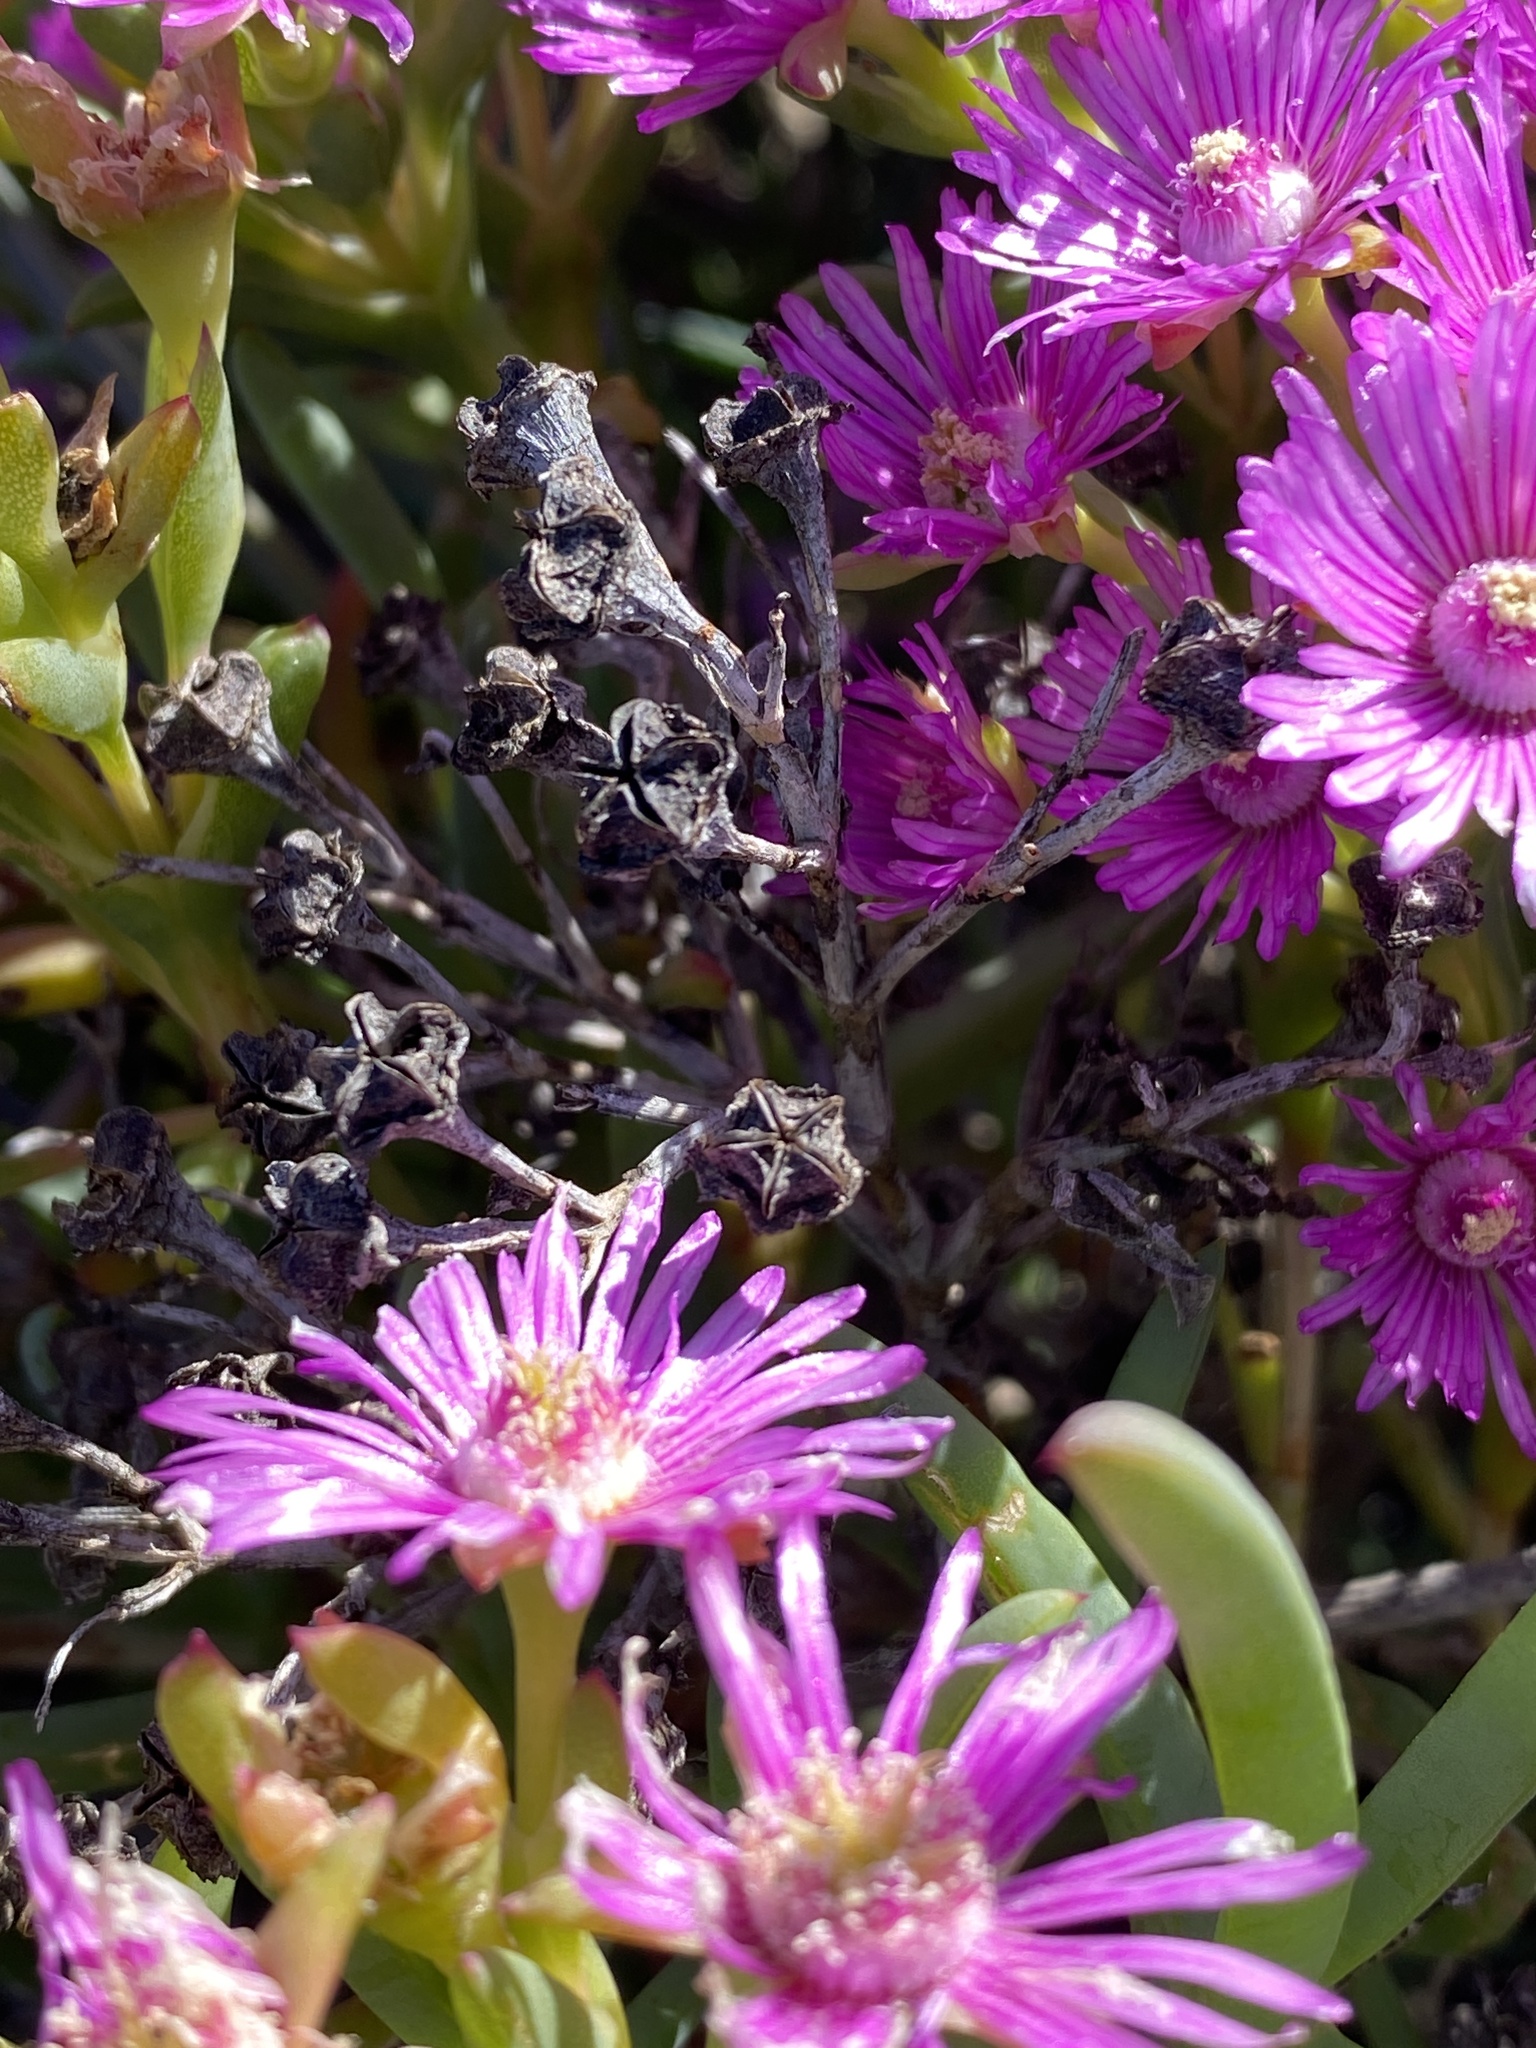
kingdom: Plantae
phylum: Tracheophyta
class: Magnoliopsida
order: Caryophyllales
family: Aizoaceae
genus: Ruschia
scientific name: Ruschia suaveolens
